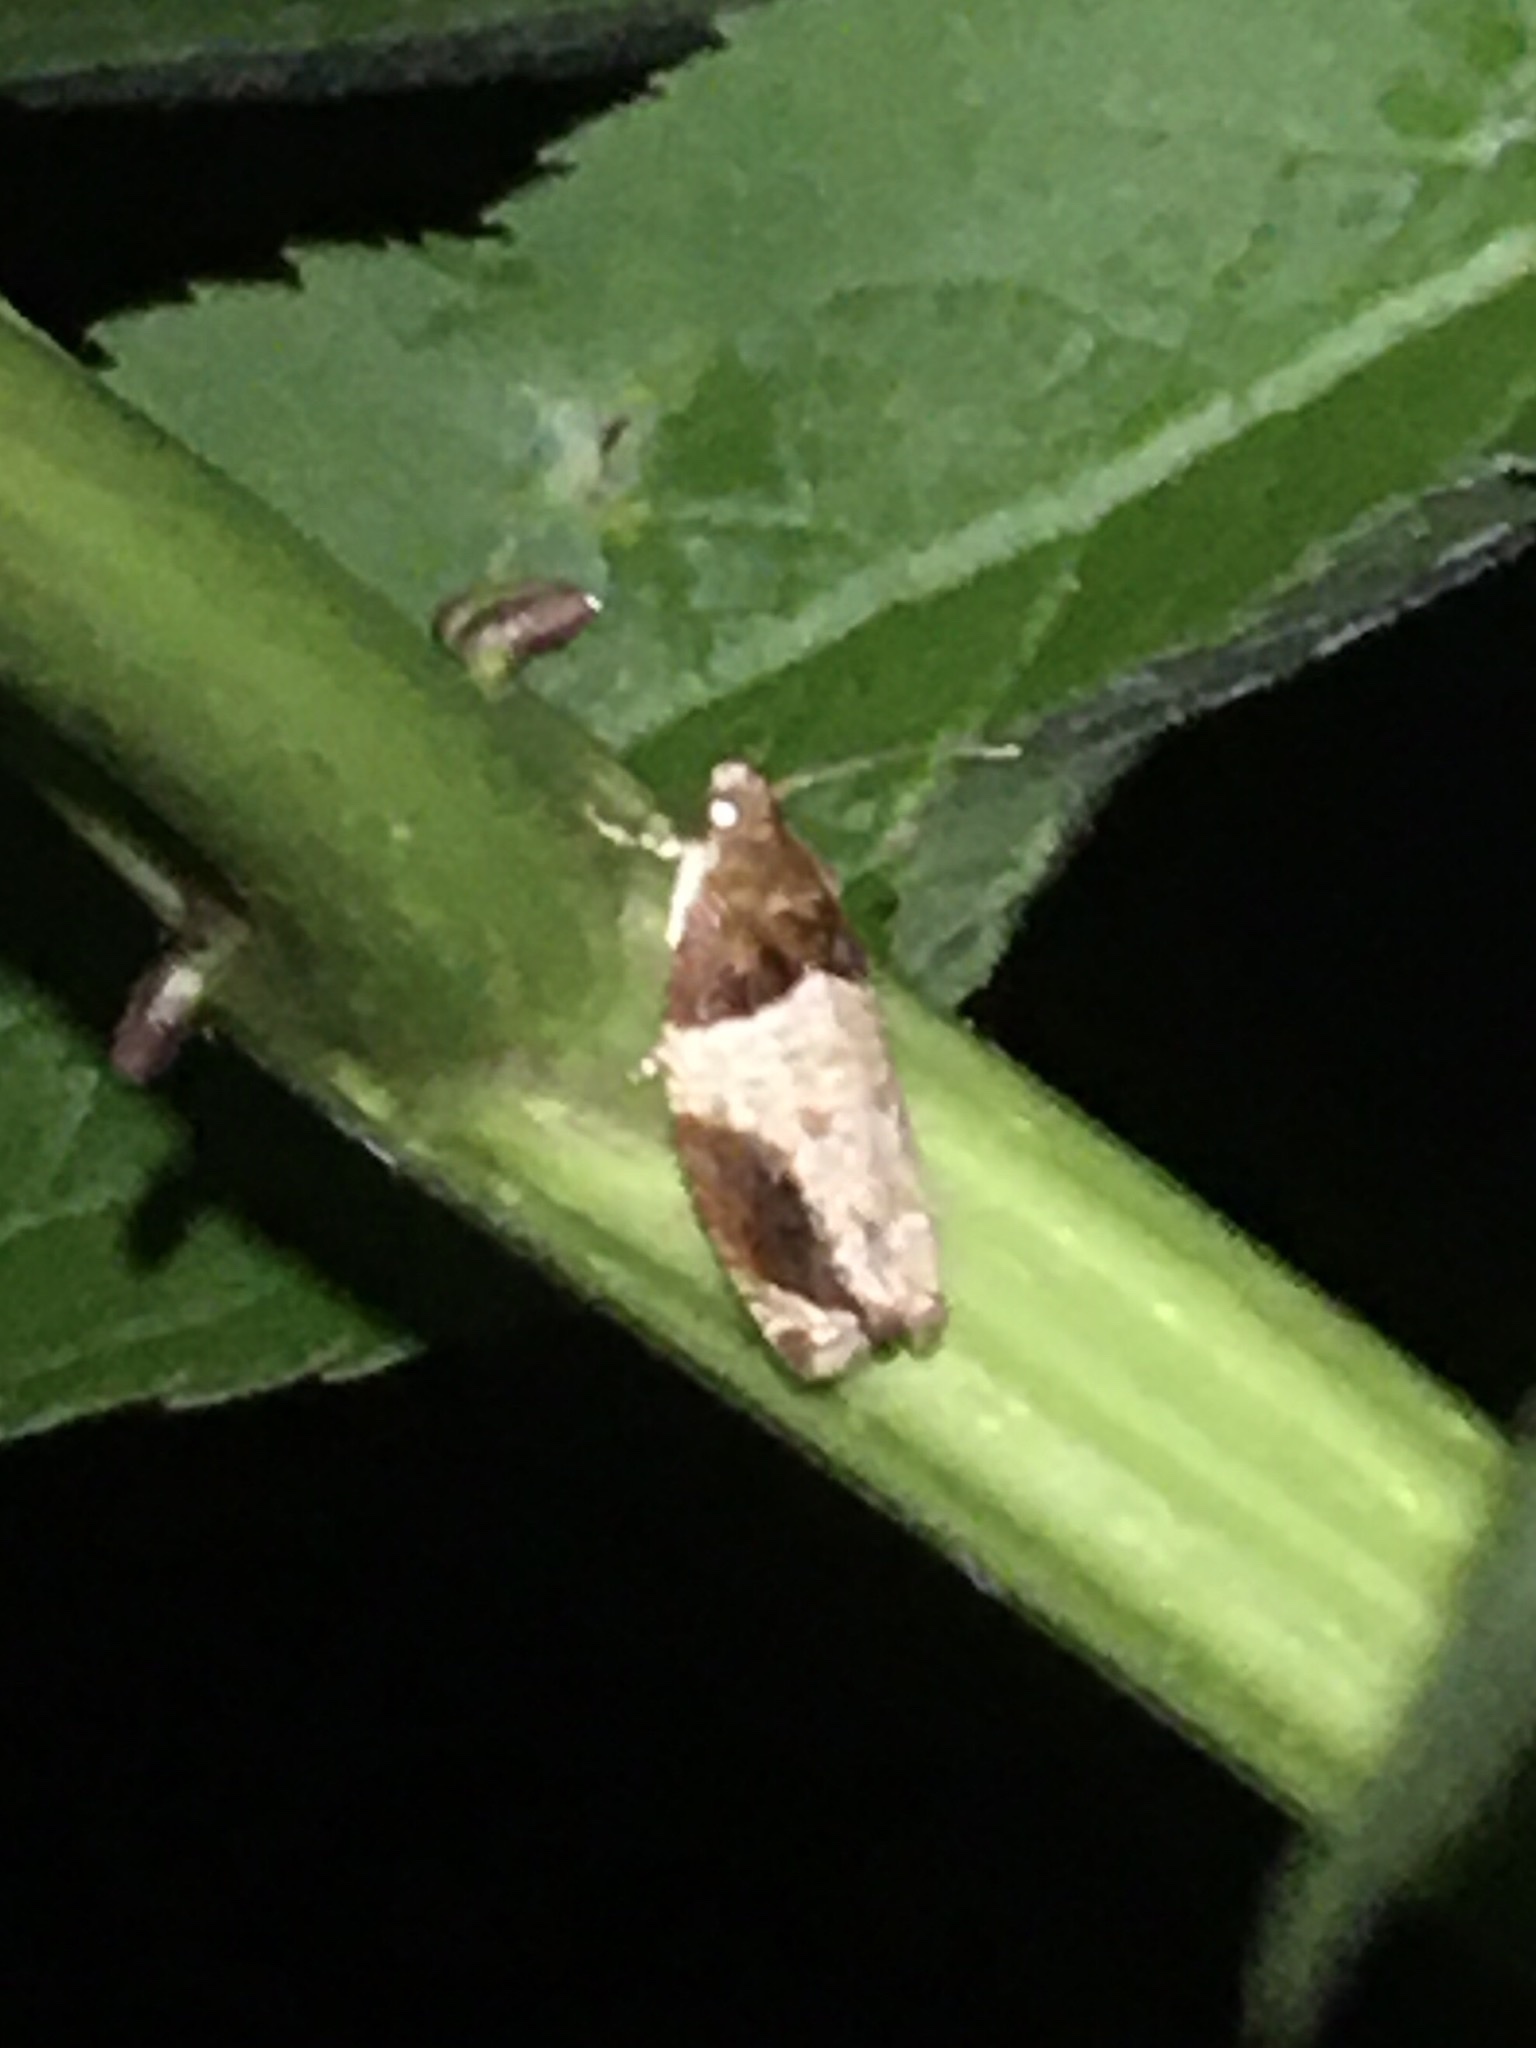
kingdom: Animalia
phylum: Arthropoda
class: Insecta
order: Lepidoptera
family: Tortricidae
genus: Olethreutes
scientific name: Olethreutes ferriferana
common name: Hydrangea leaftier moth
